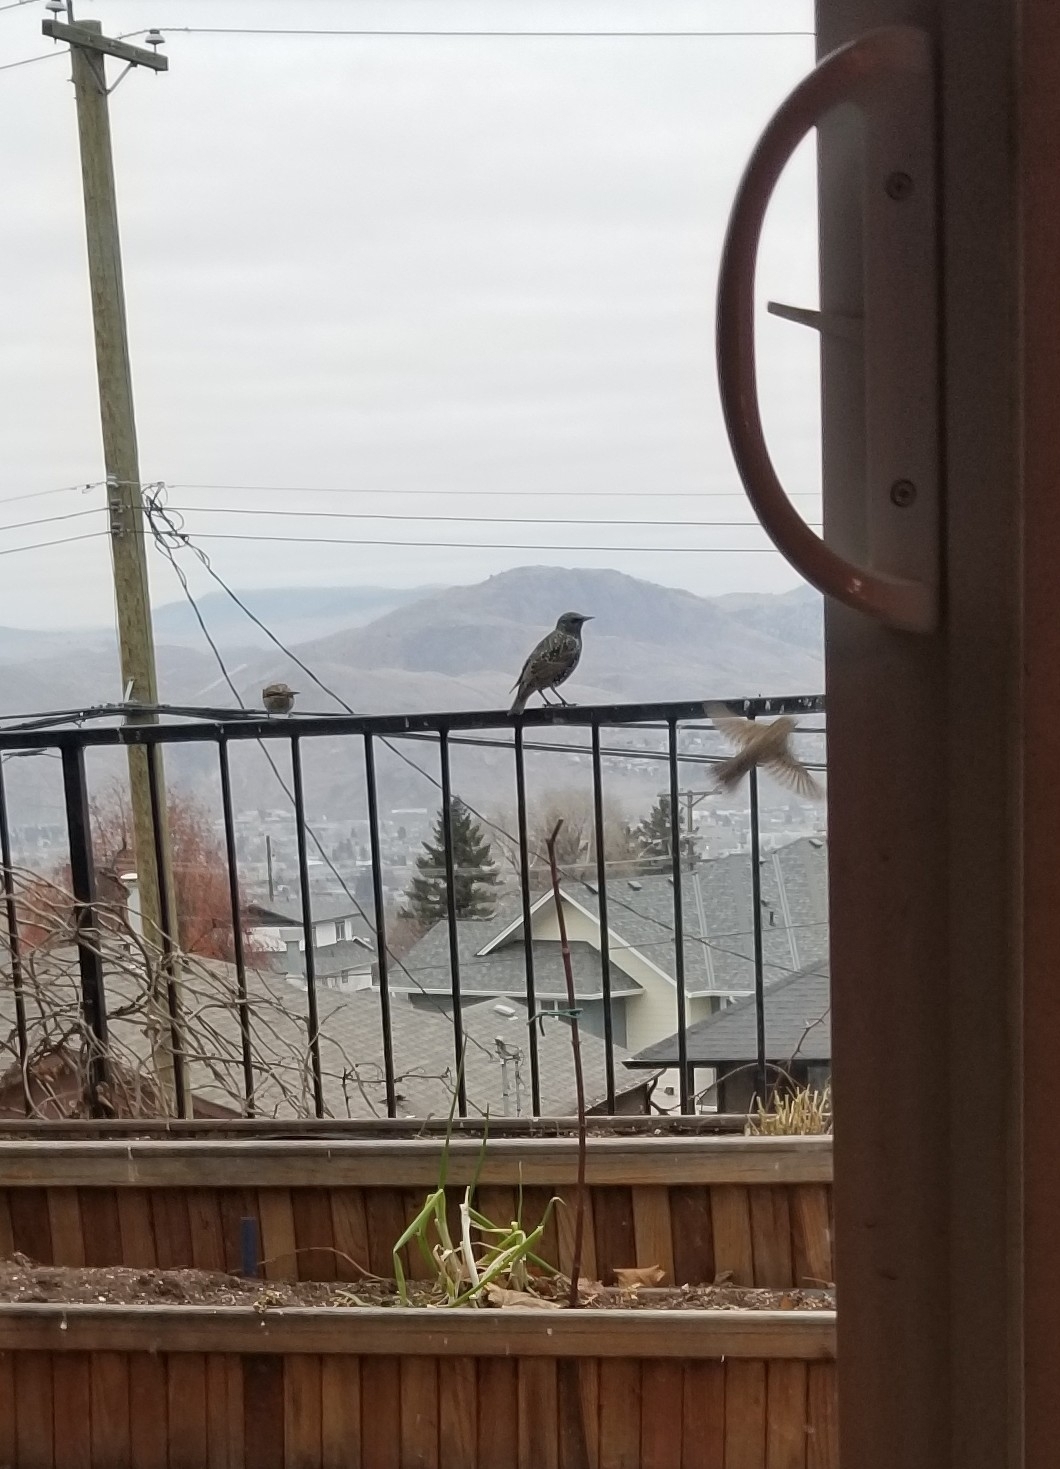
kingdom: Animalia
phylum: Chordata
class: Aves
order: Passeriformes
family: Sturnidae
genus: Sturnus
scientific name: Sturnus vulgaris
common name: Common starling
